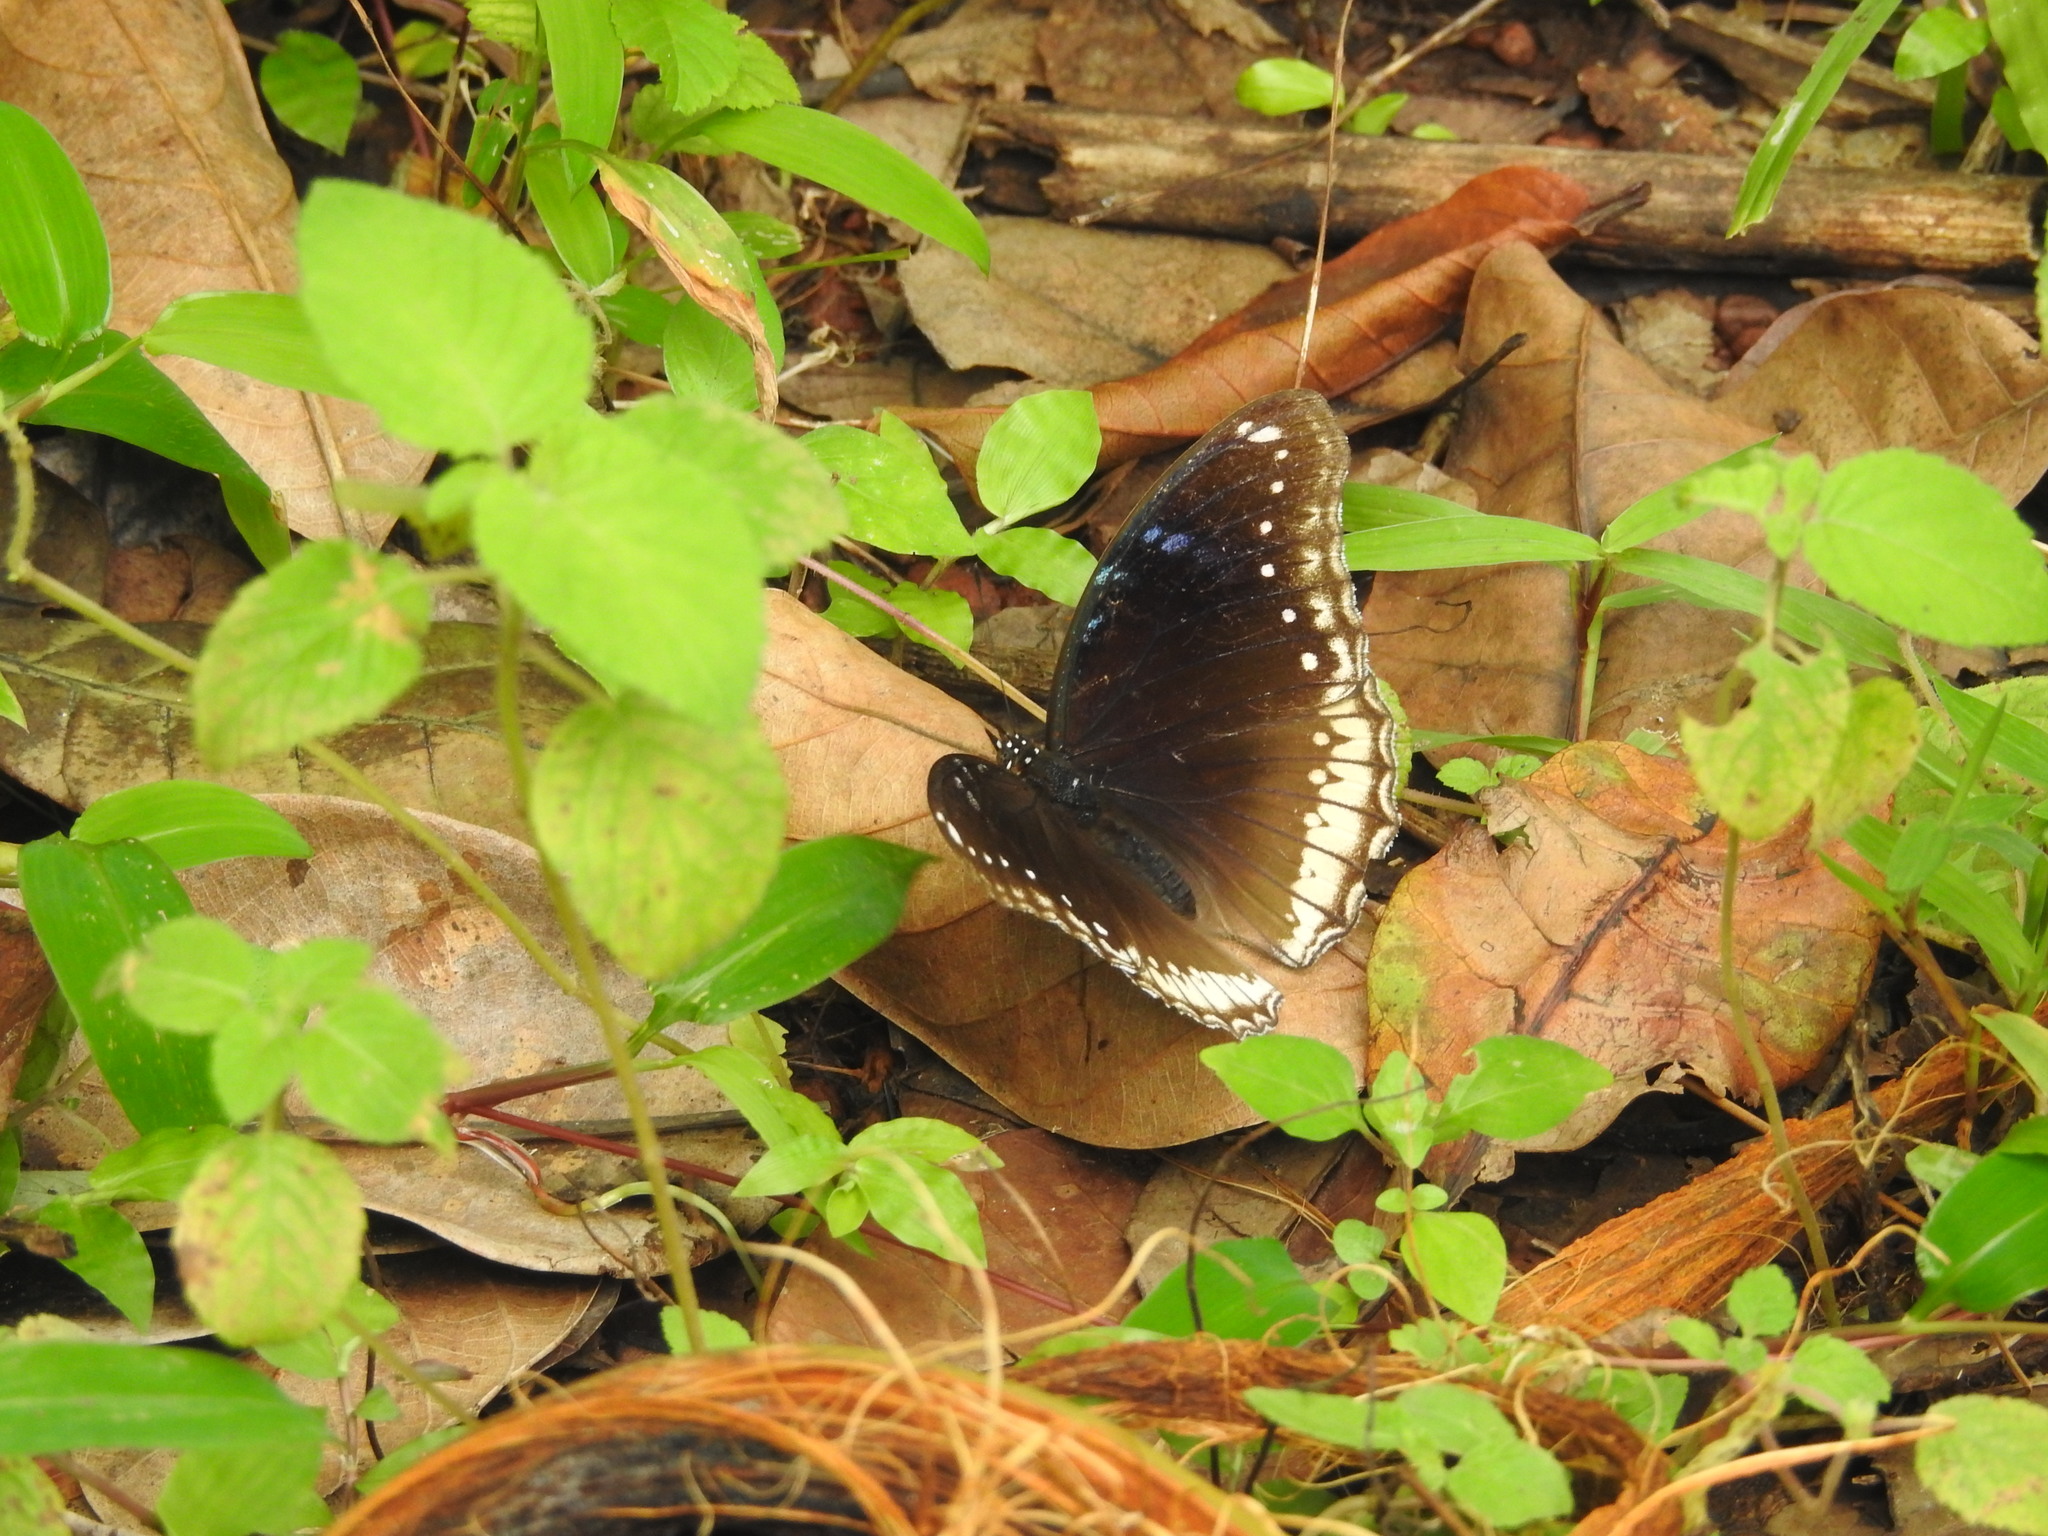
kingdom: Animalia
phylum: Arthropoda
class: Insecta
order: Lepidoptera
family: Nymphalidae
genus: Hypolimnas
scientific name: Hypolimnas bolina
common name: Great eggfly
